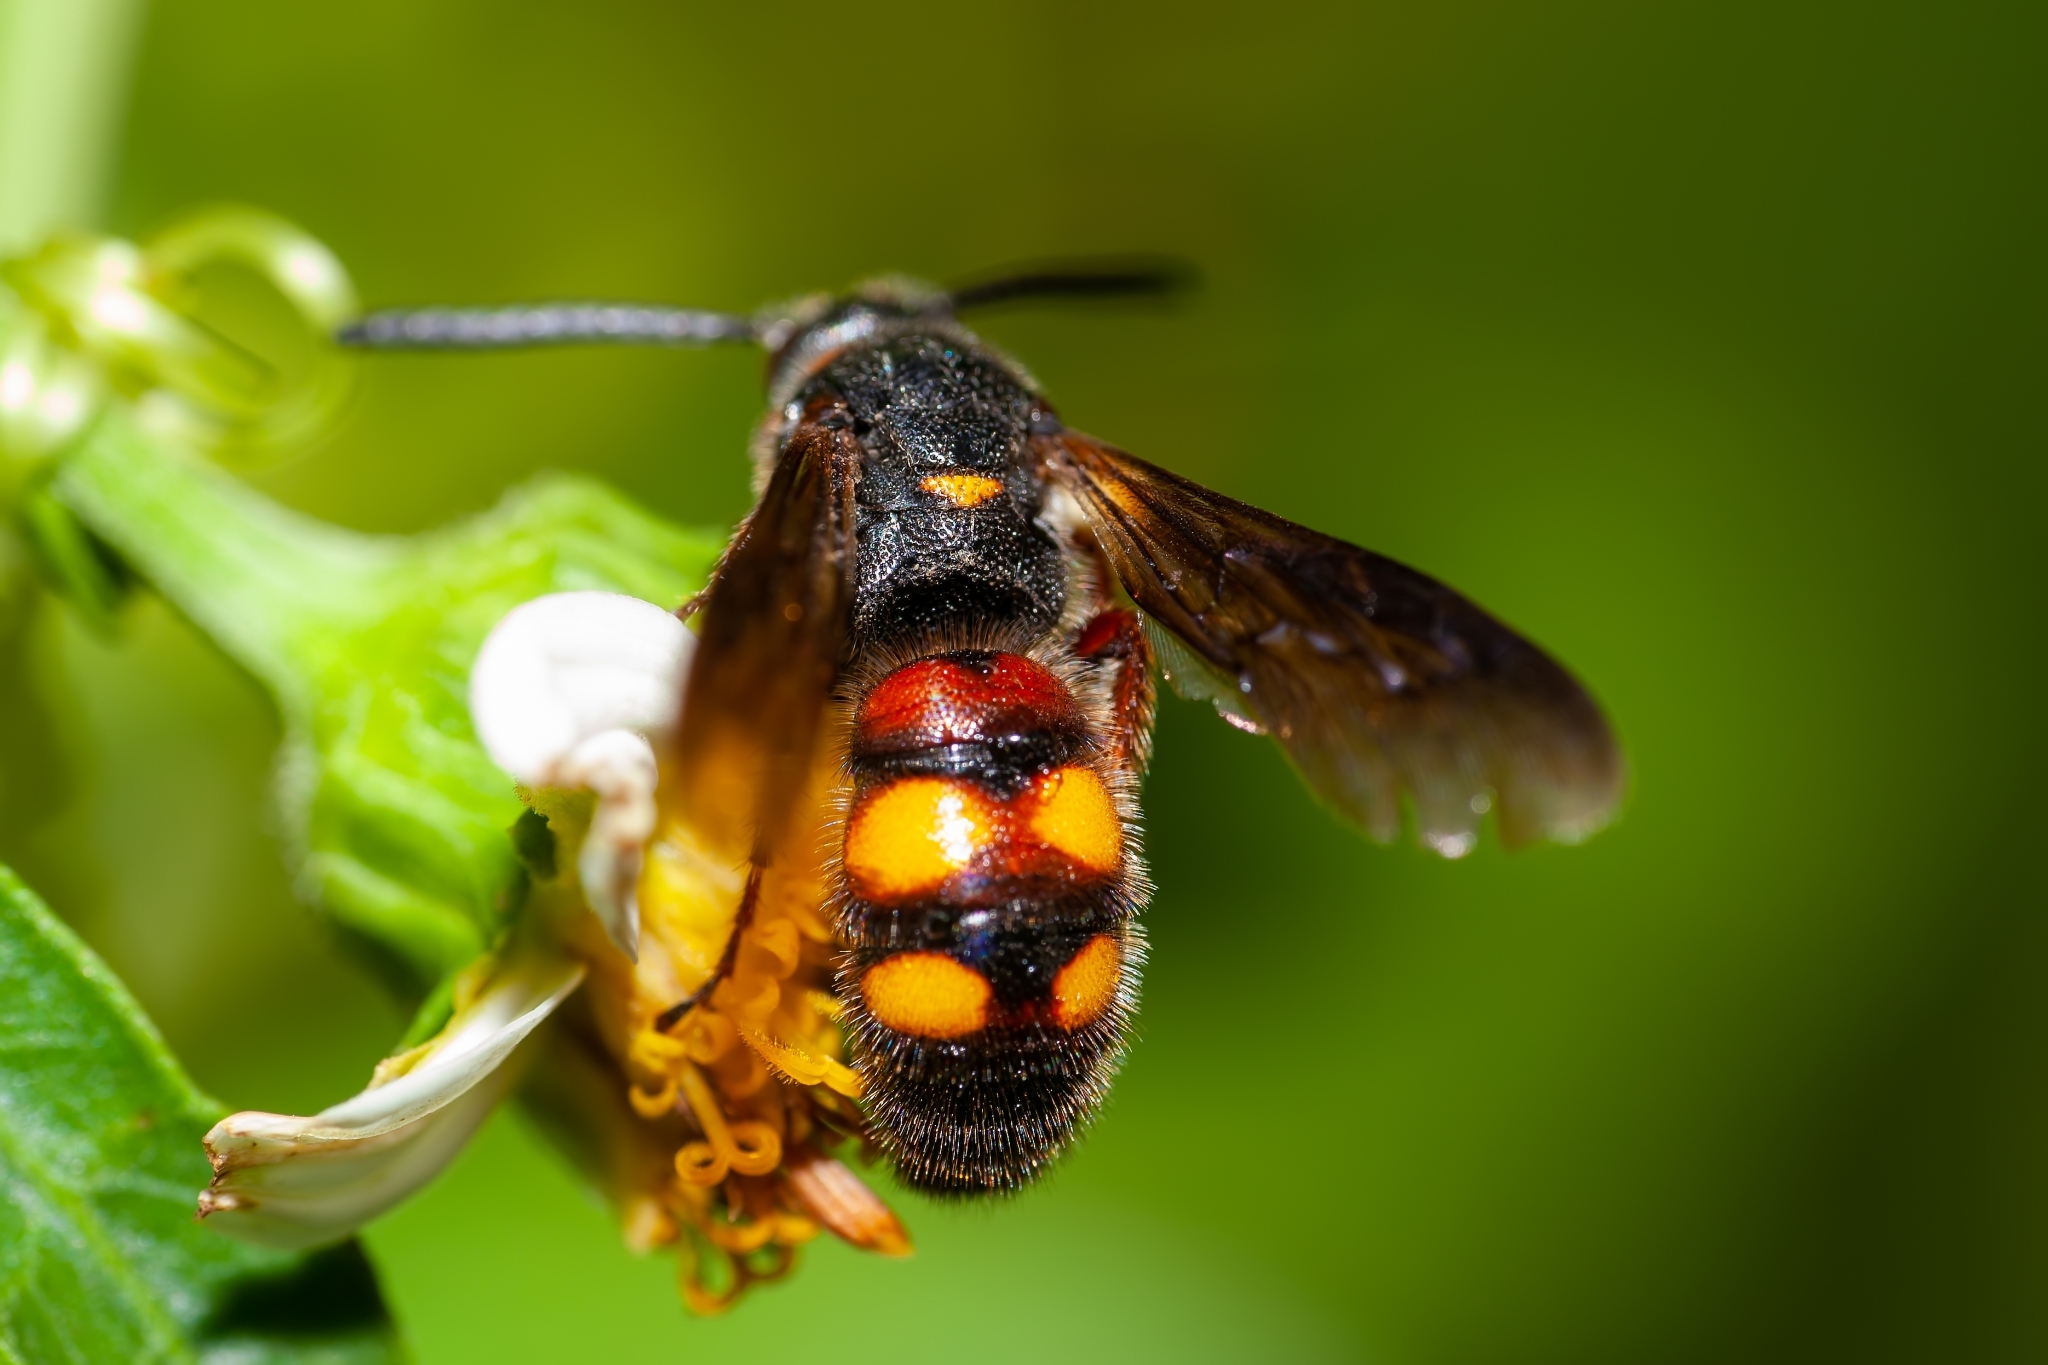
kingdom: Animalia
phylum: Arthropoda
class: Insecta
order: Hymenoptera
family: Scoliidae
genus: Scolia
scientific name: Scolia nobilitata
